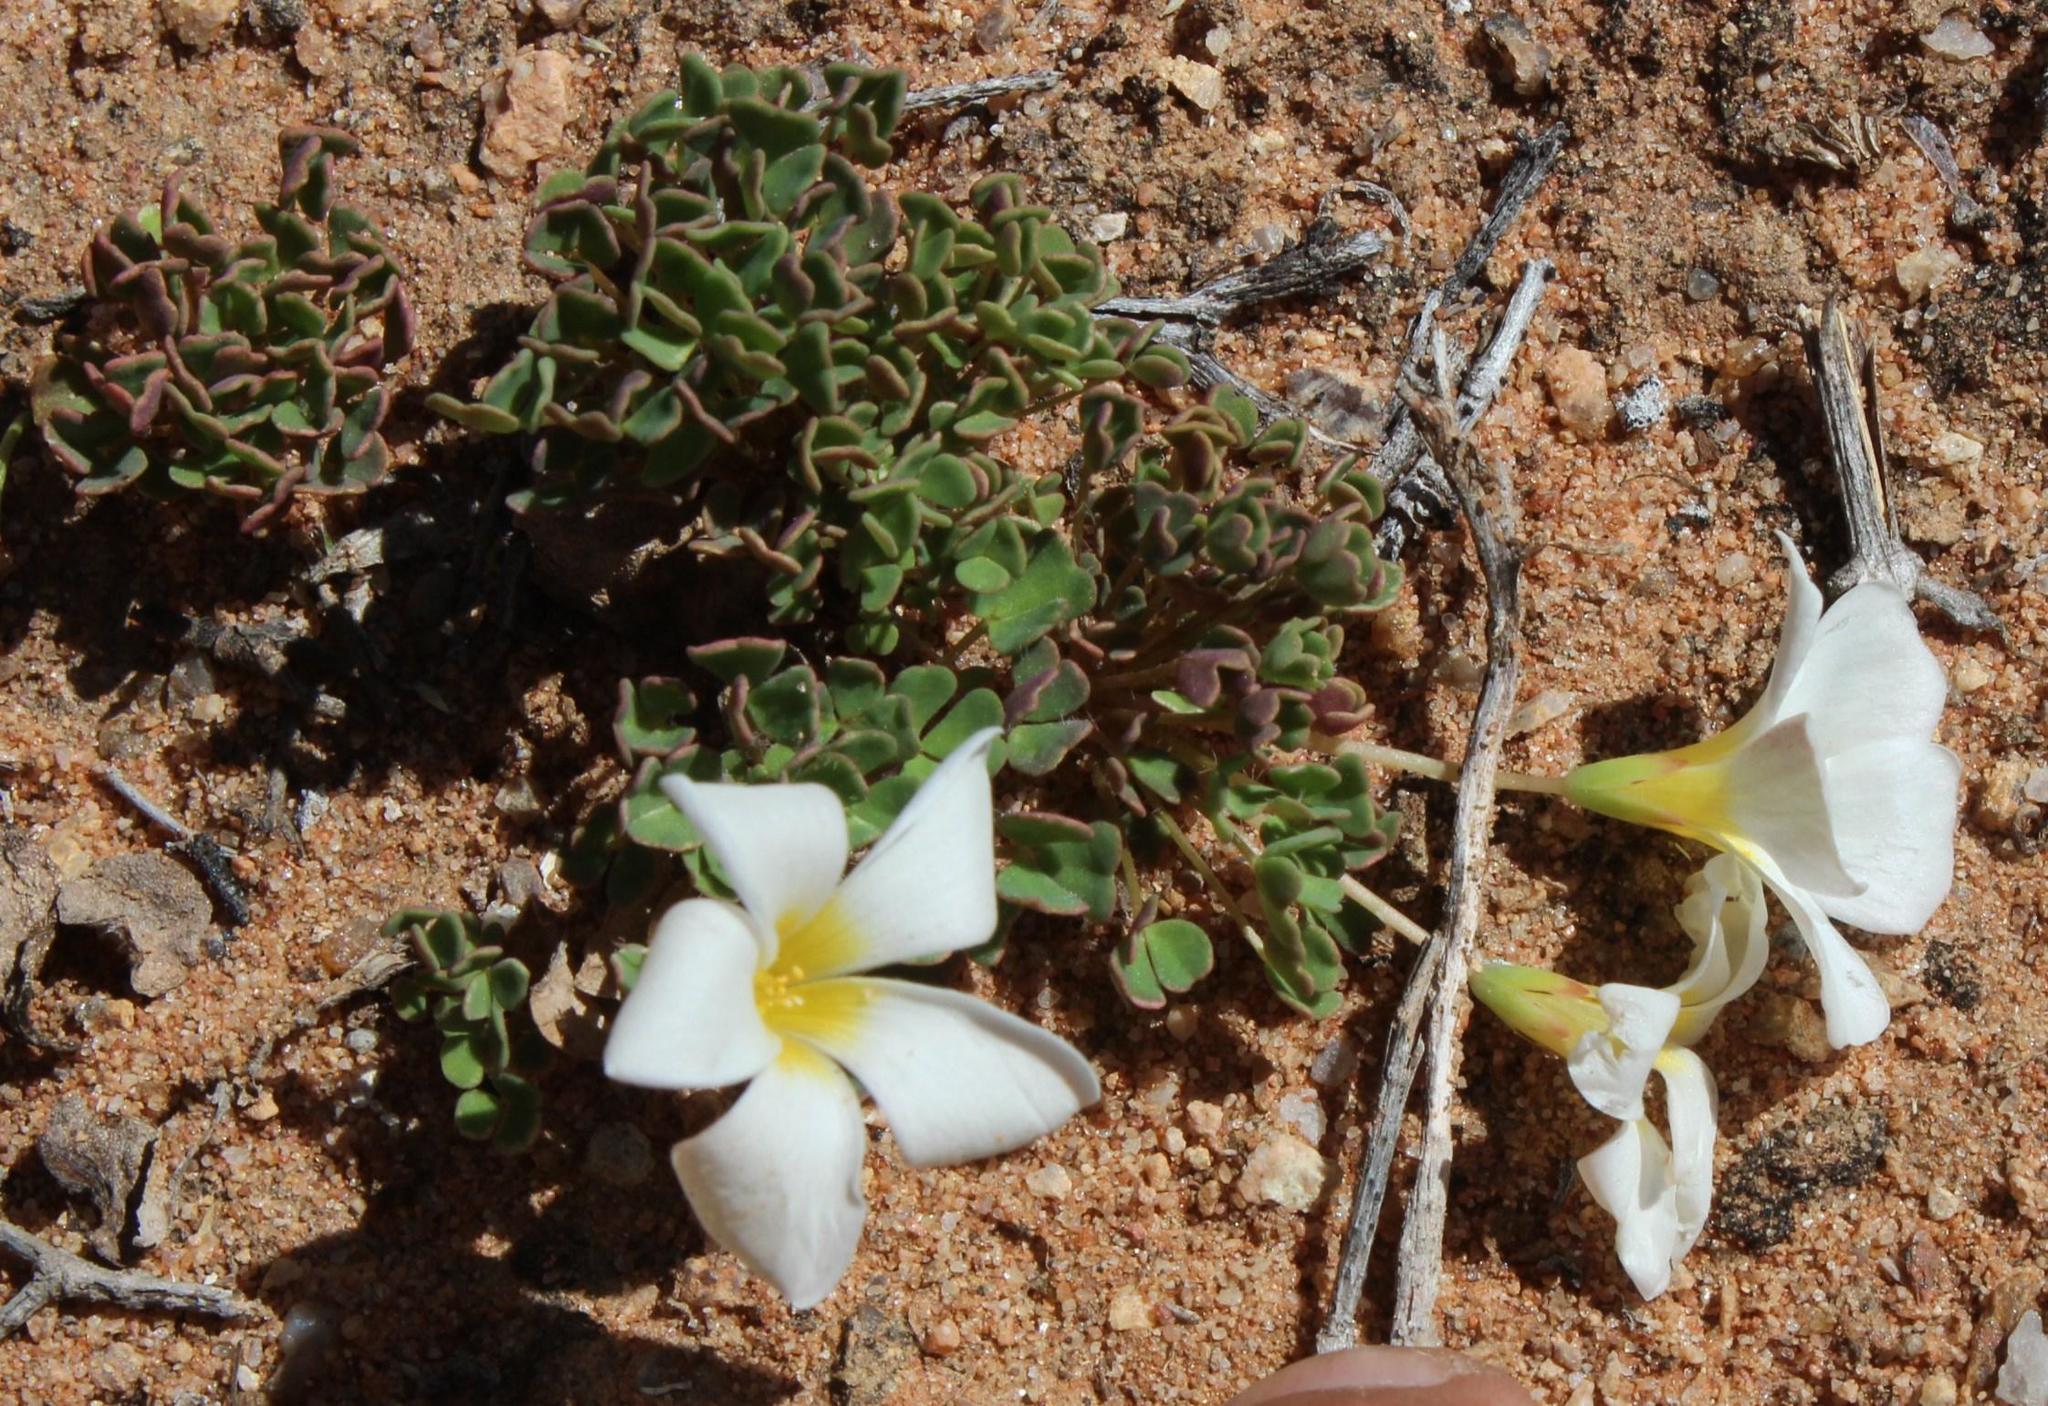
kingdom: Plantae
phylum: Tracheophyta
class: Magnoliopsida
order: Oxalidales
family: Oxalidaceae
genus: Oxalis
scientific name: Oxalis annae
